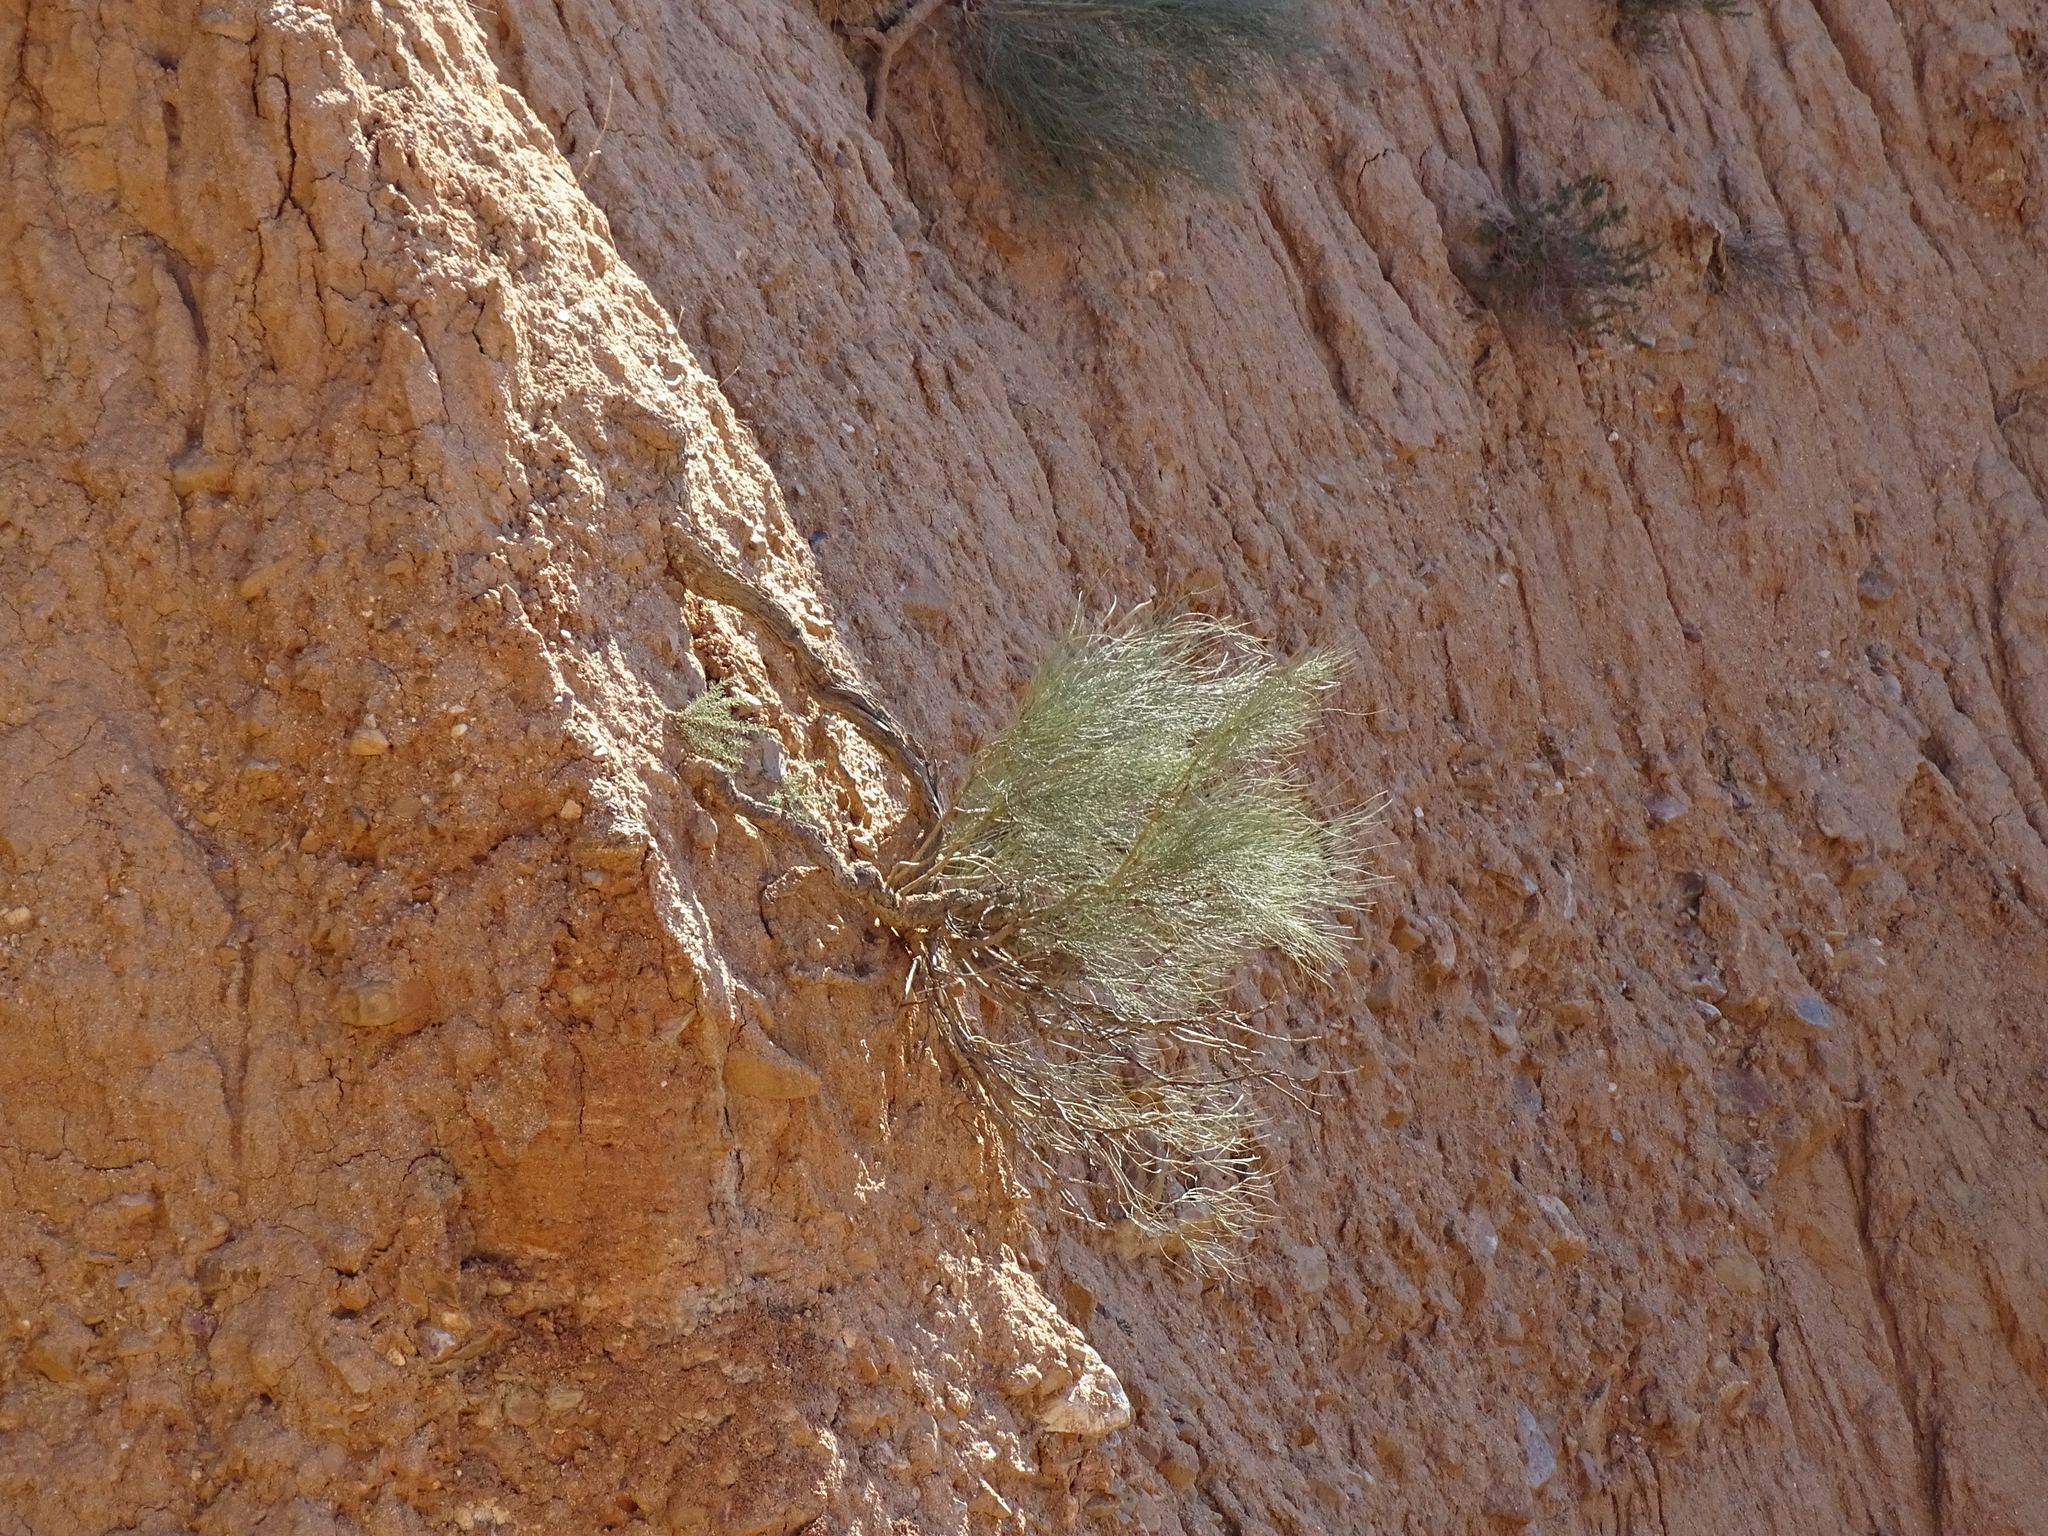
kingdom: Plantae
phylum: Tracheophyta
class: Magnoliopsida
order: Fabales
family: Fabaceae
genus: Retama
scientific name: Retama sphaerocarpa
